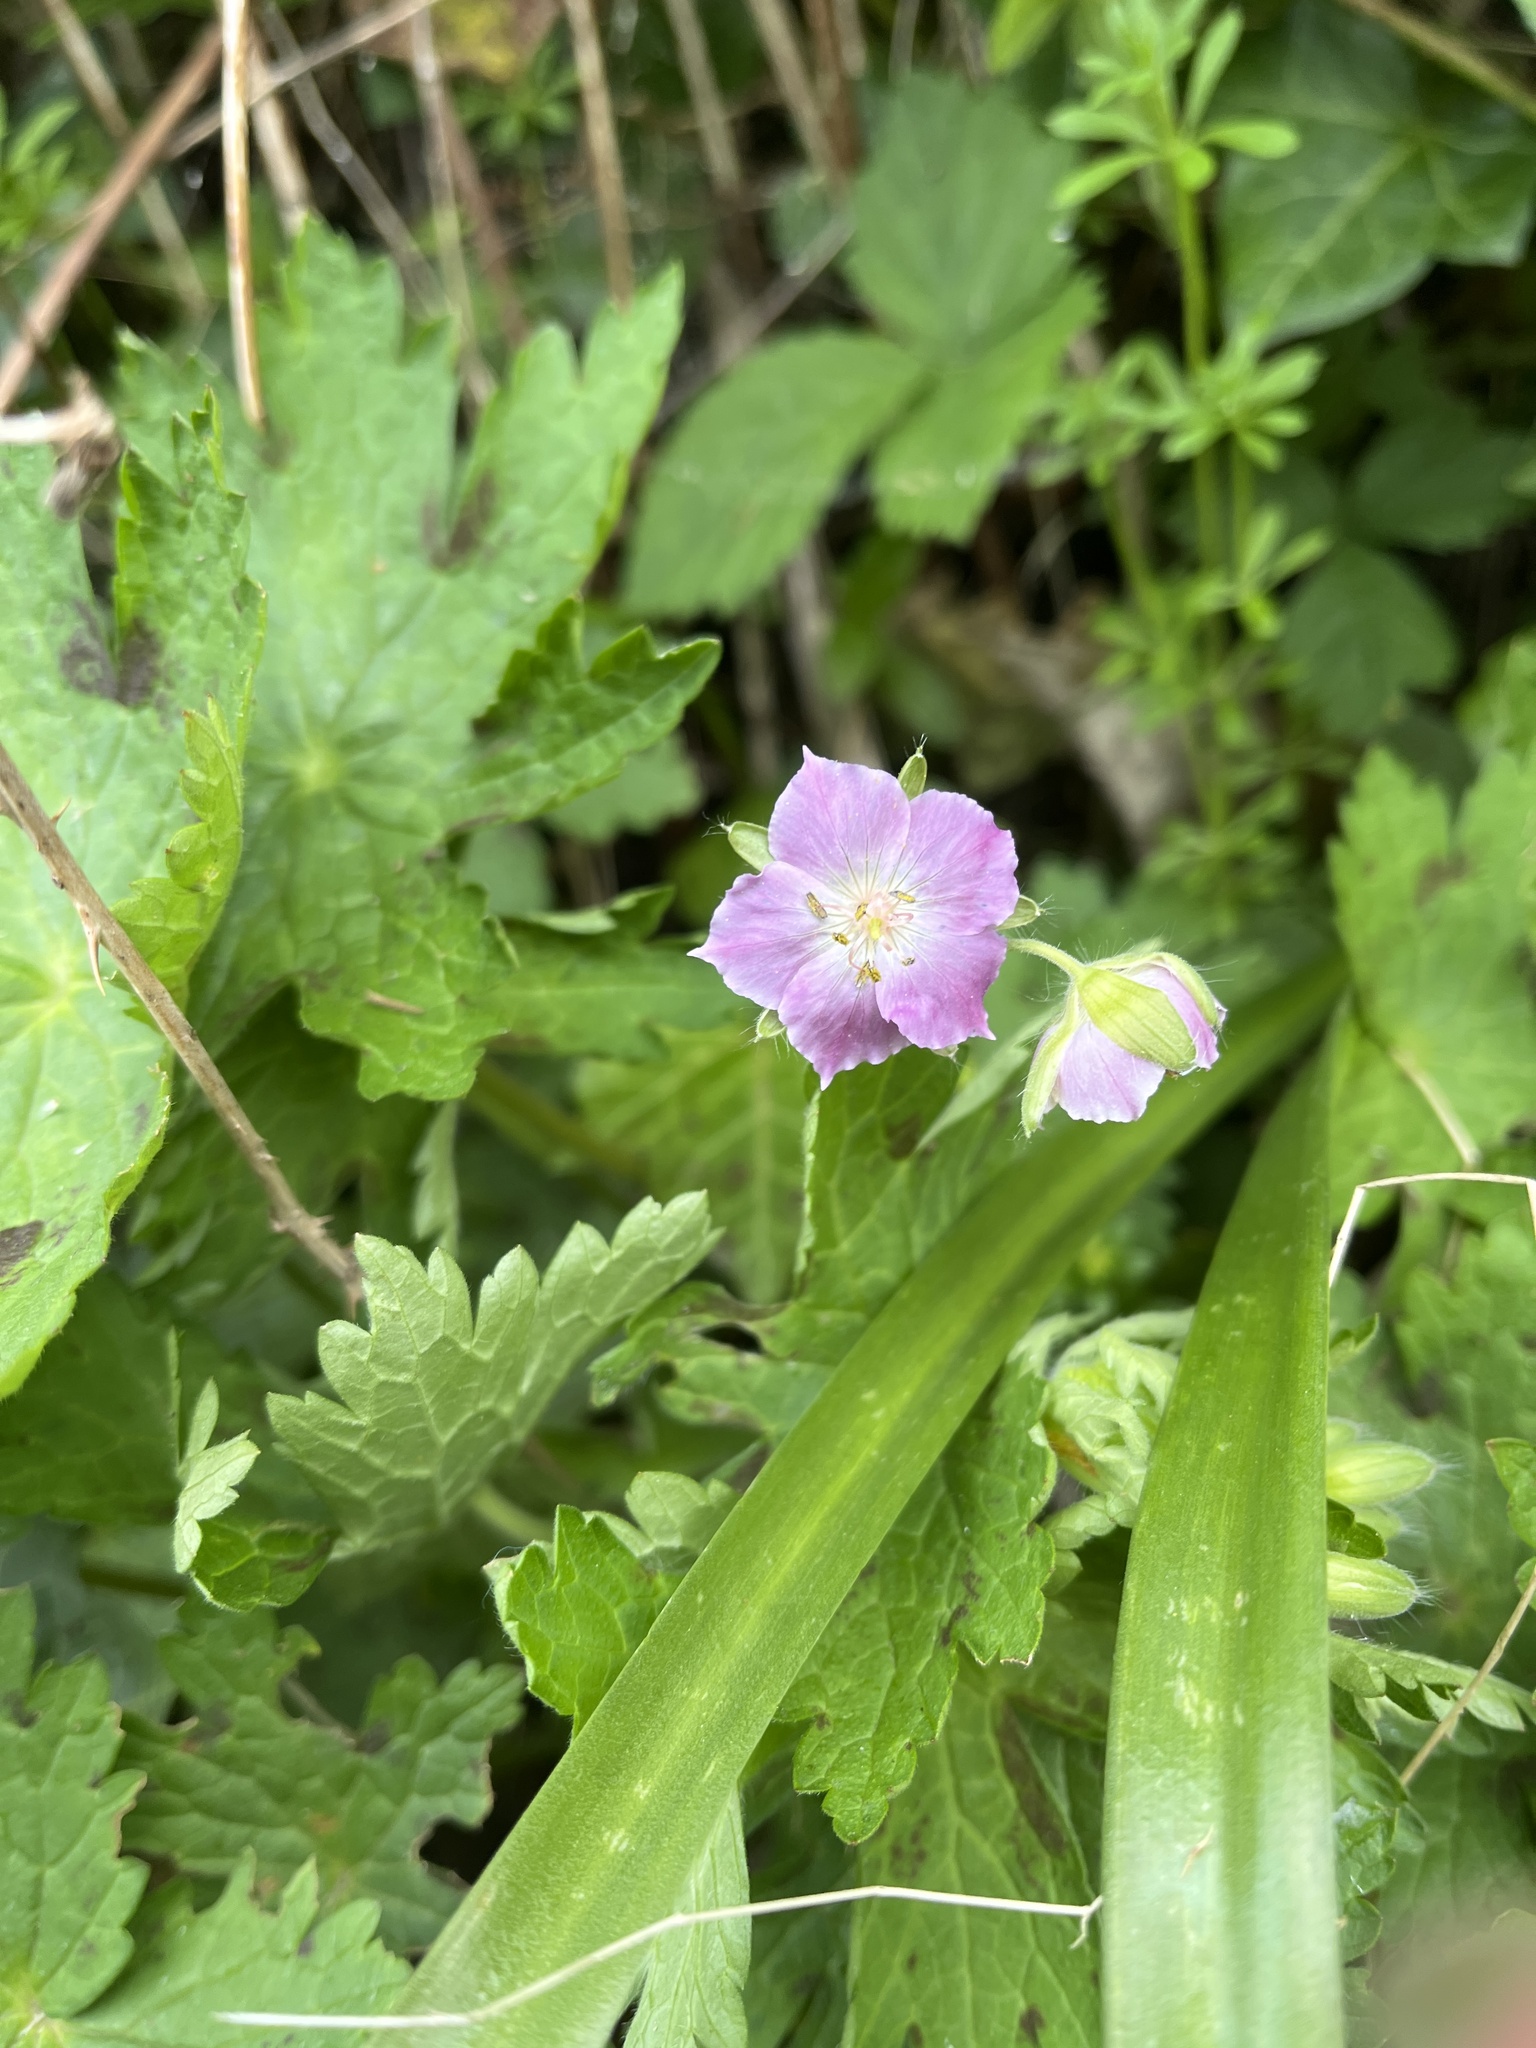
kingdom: Plantae
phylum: Tracheophyta
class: Magnoliopsida
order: Geraniales
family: Geraniaceae
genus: Geranium
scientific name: Geranium phaeum
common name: Dusky crane's-bill
